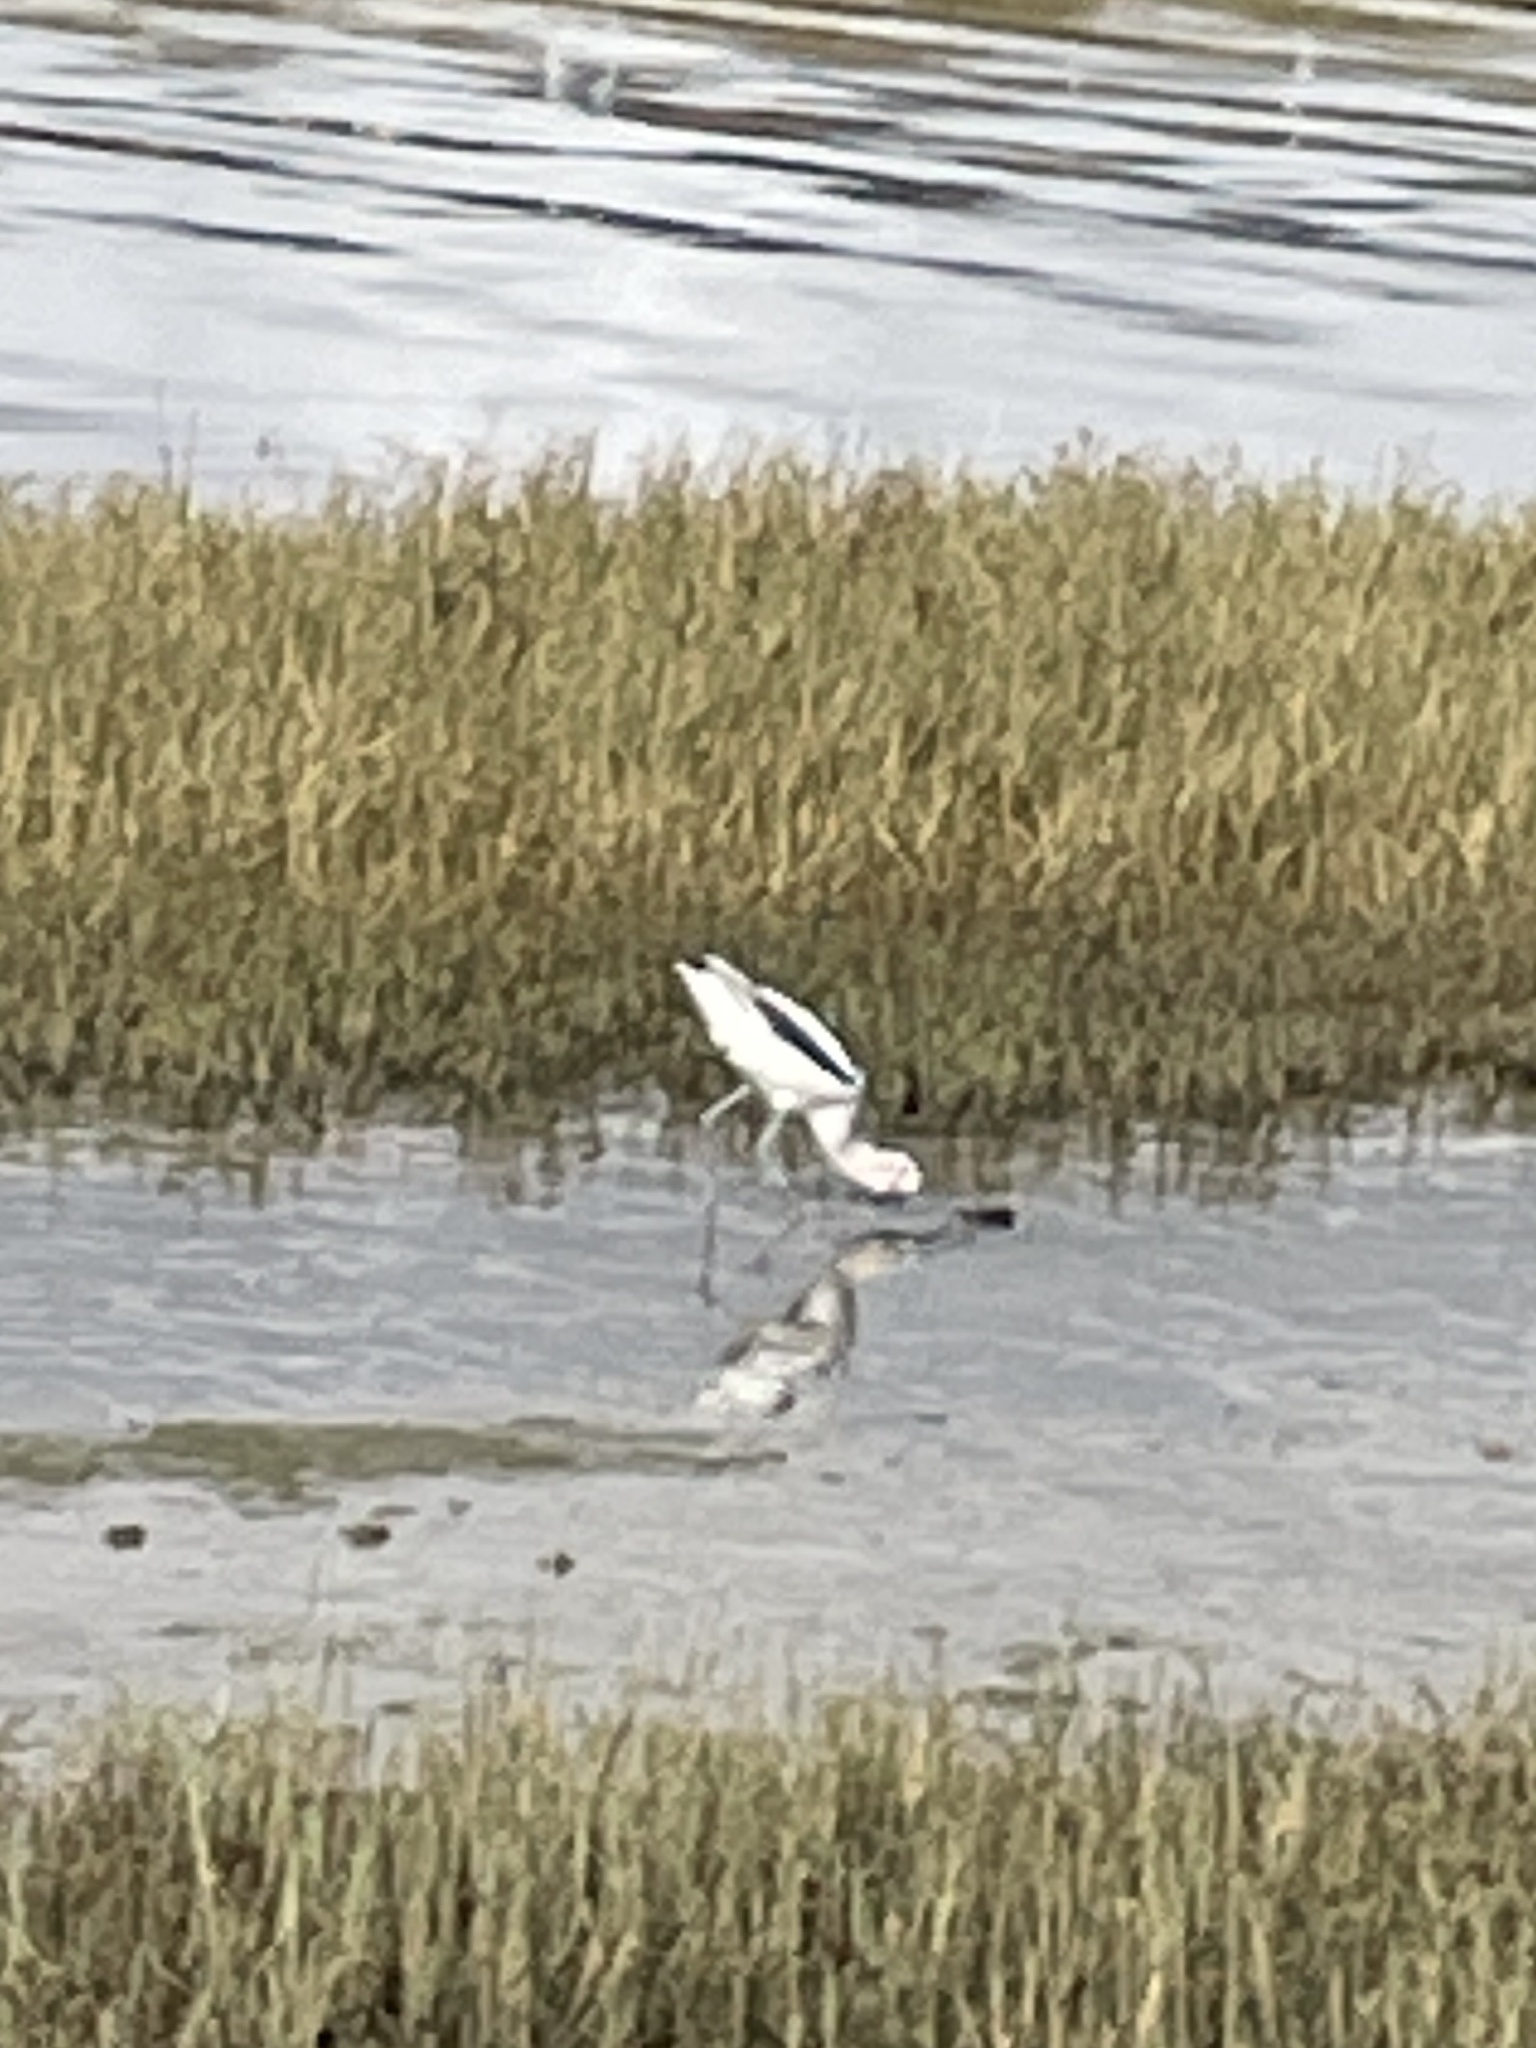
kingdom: Animalia
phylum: Chordata
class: Aves
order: Charadriiformes
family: Recurvirostridae
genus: Recurvirostra
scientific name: Recurvirostra americana
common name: American avocet
